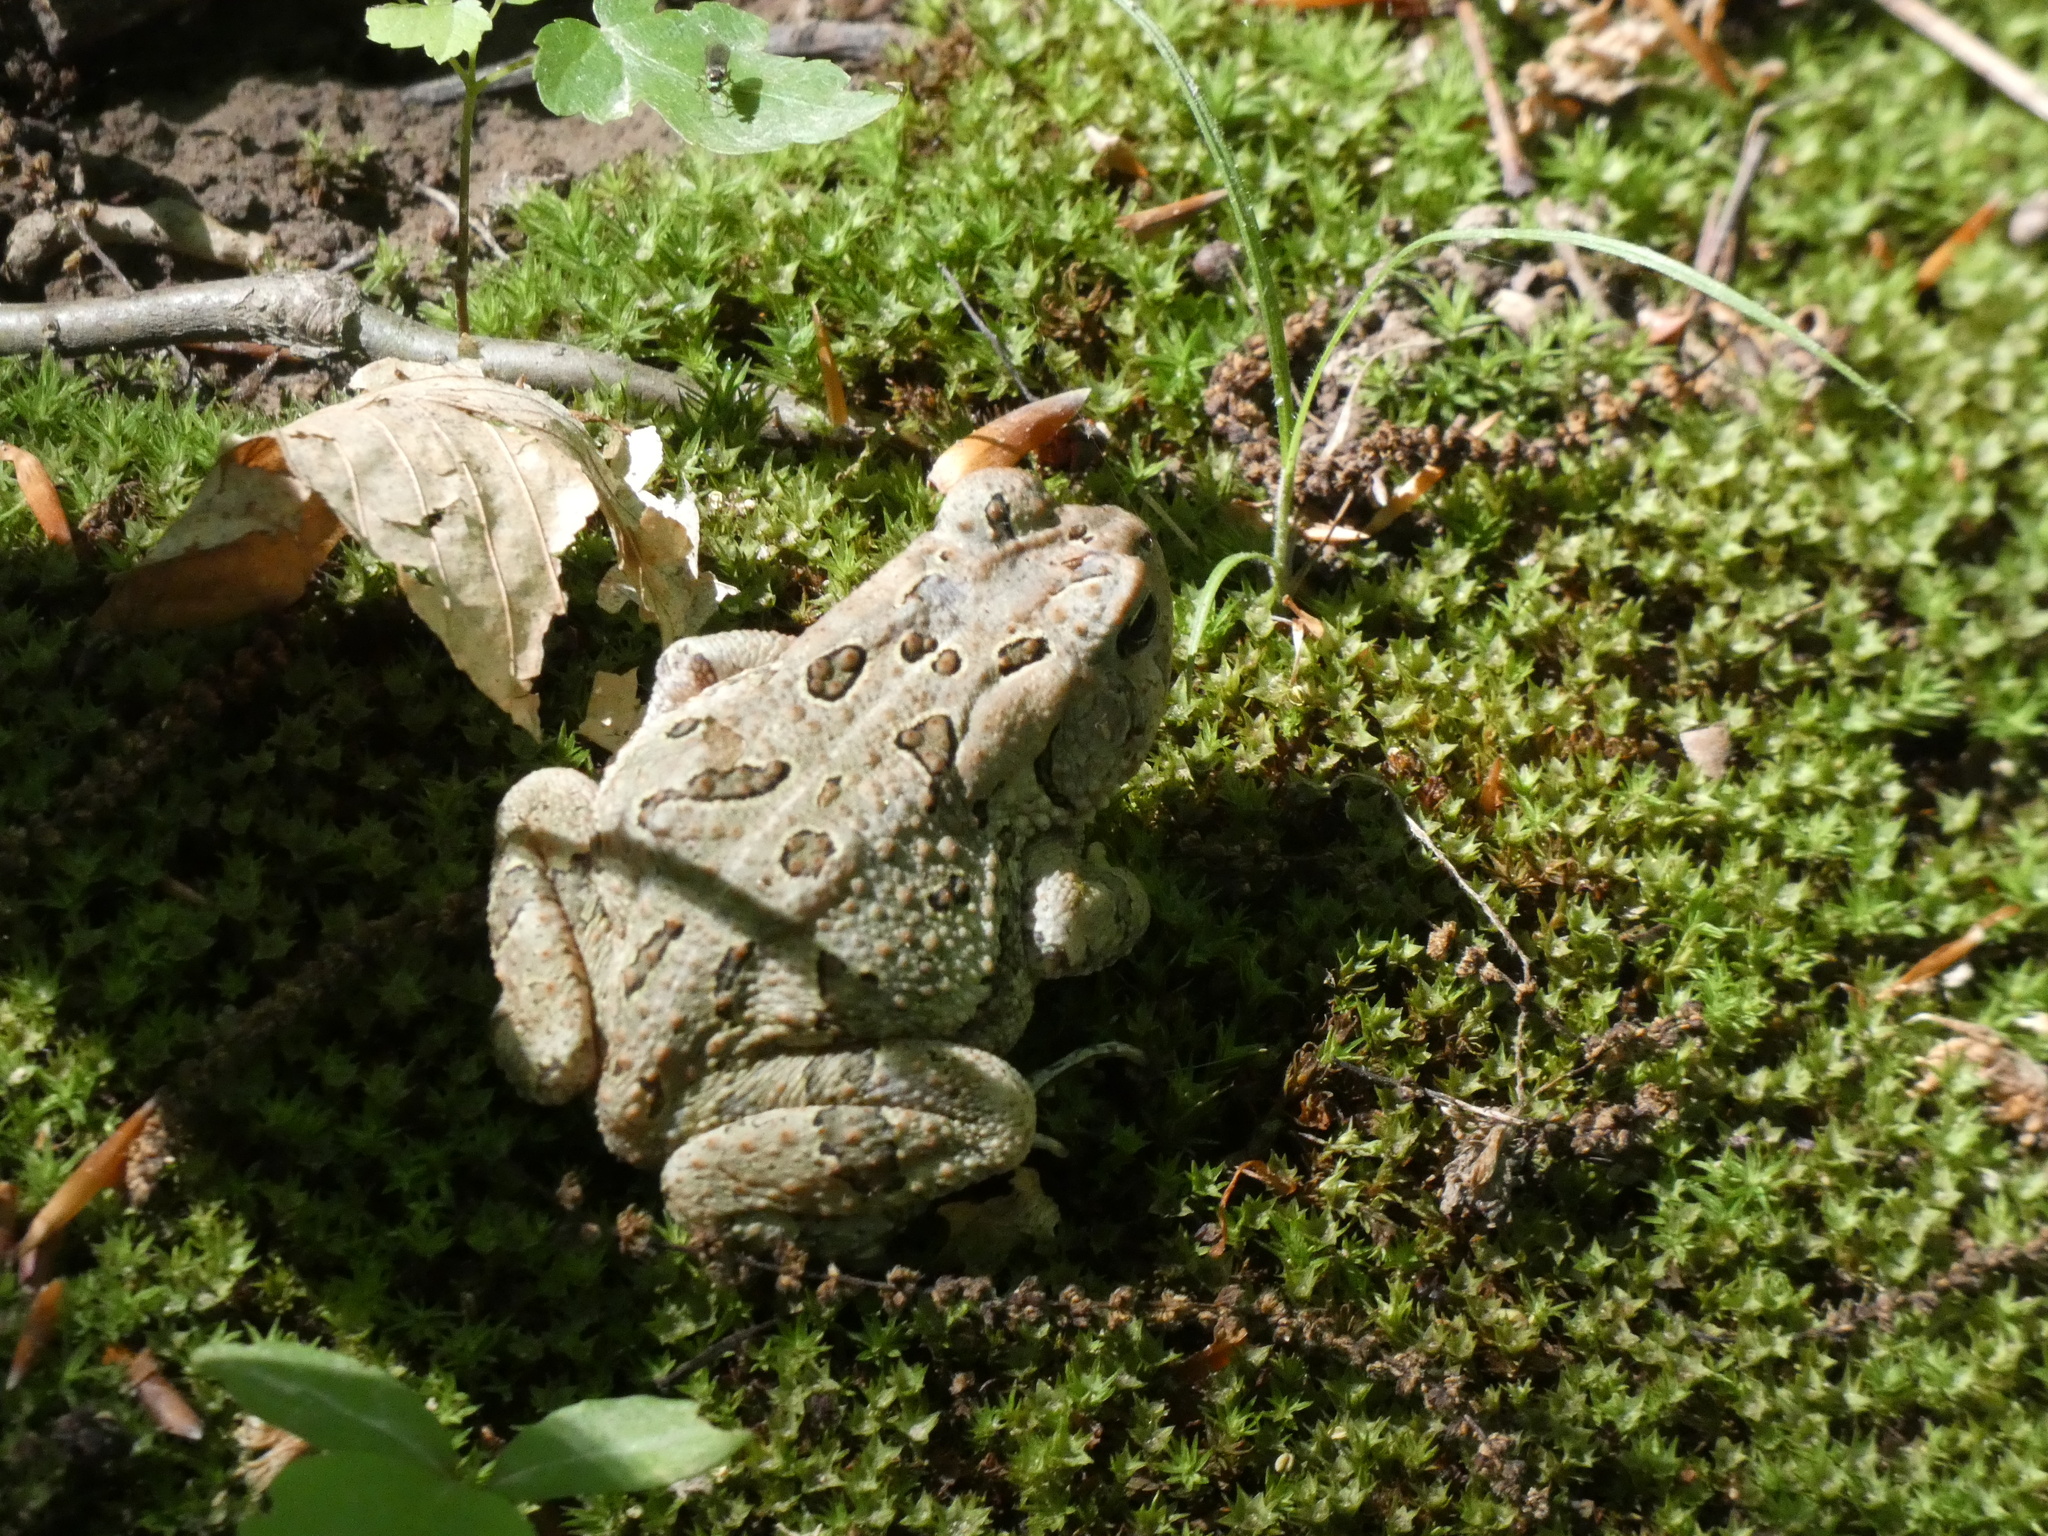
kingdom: Animalia
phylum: Chordata
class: Amphibia
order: Anura
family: Bufonidae
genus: Anaxyrus
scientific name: Anaxyrus fowleri
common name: Fowler's toad
